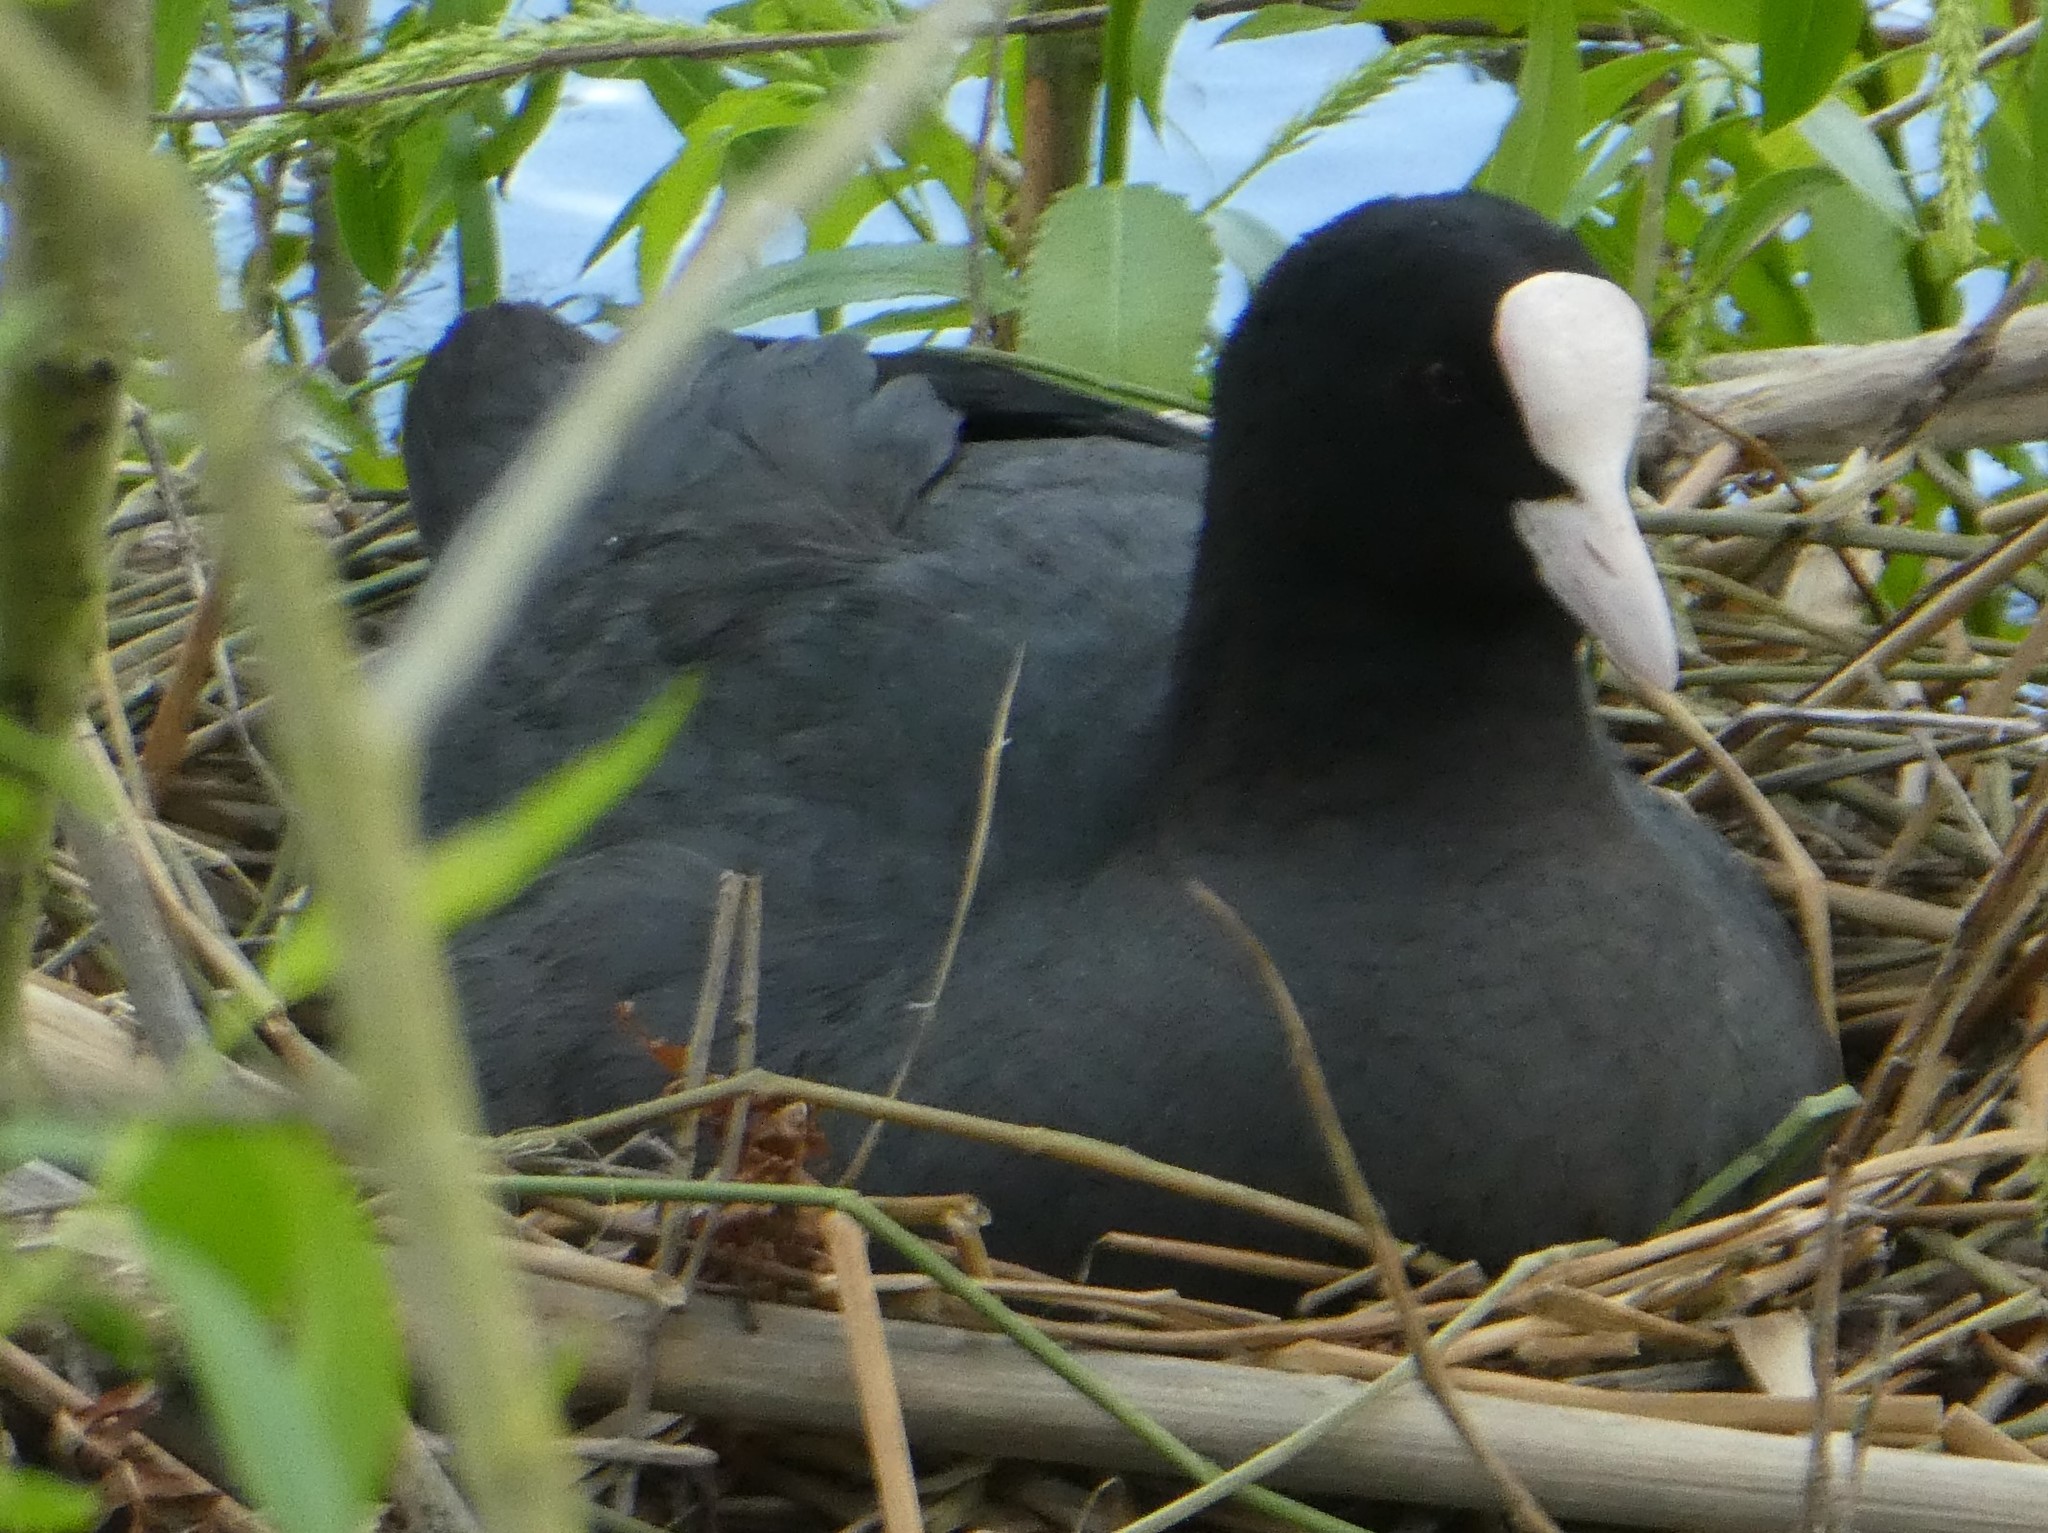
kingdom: Animalia
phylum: Chordata
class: Aves
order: Gruiformes
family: Rallidae
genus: Fulica
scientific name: Fulica atra
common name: Eurasian coot
